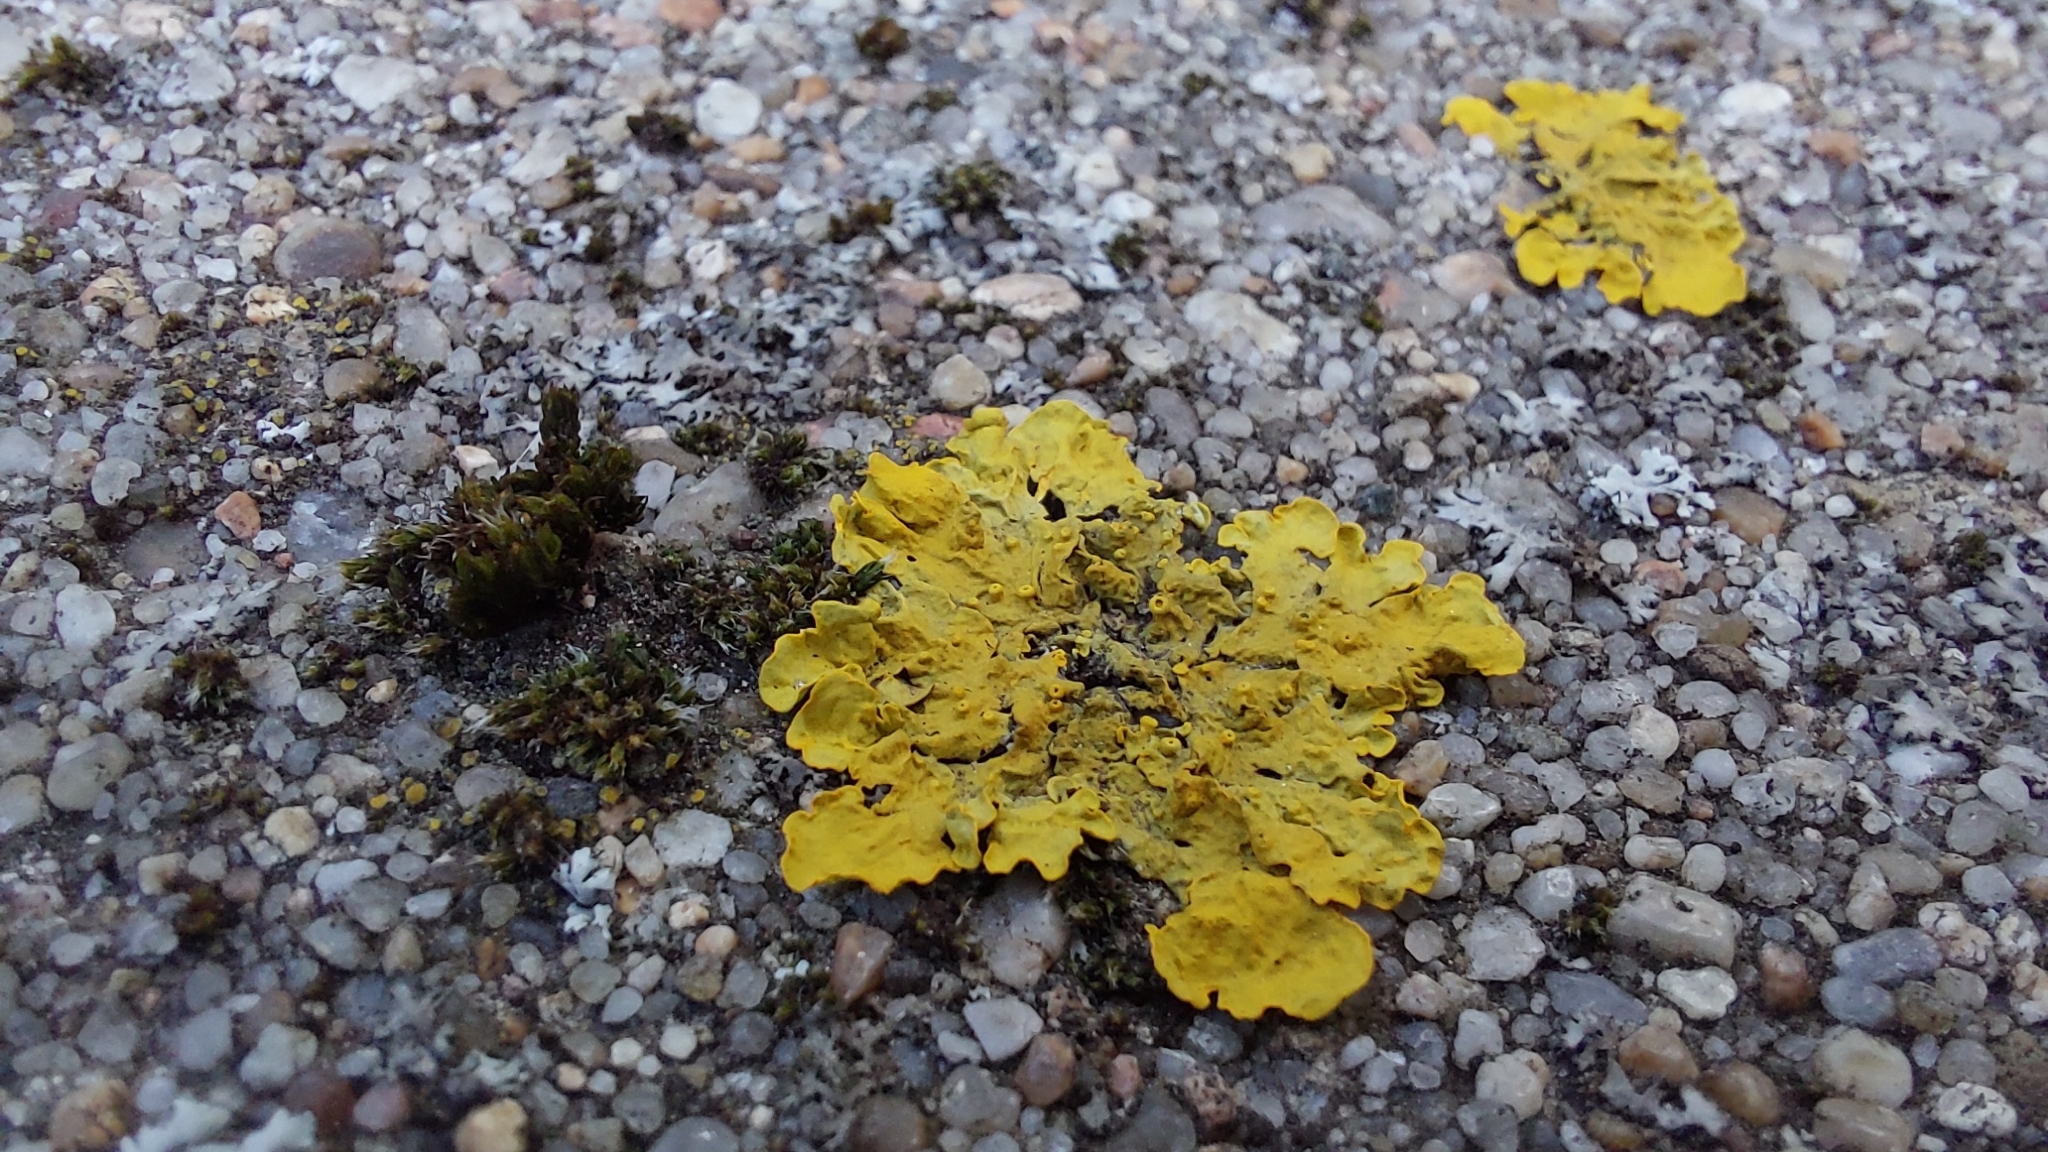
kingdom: Fungi
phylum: Ascomycota
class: Lecanoromycetes
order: Teloschistales
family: Teloschistaceae
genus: Xanthoria
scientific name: Xanthoria parietina
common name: Common orange lichen
